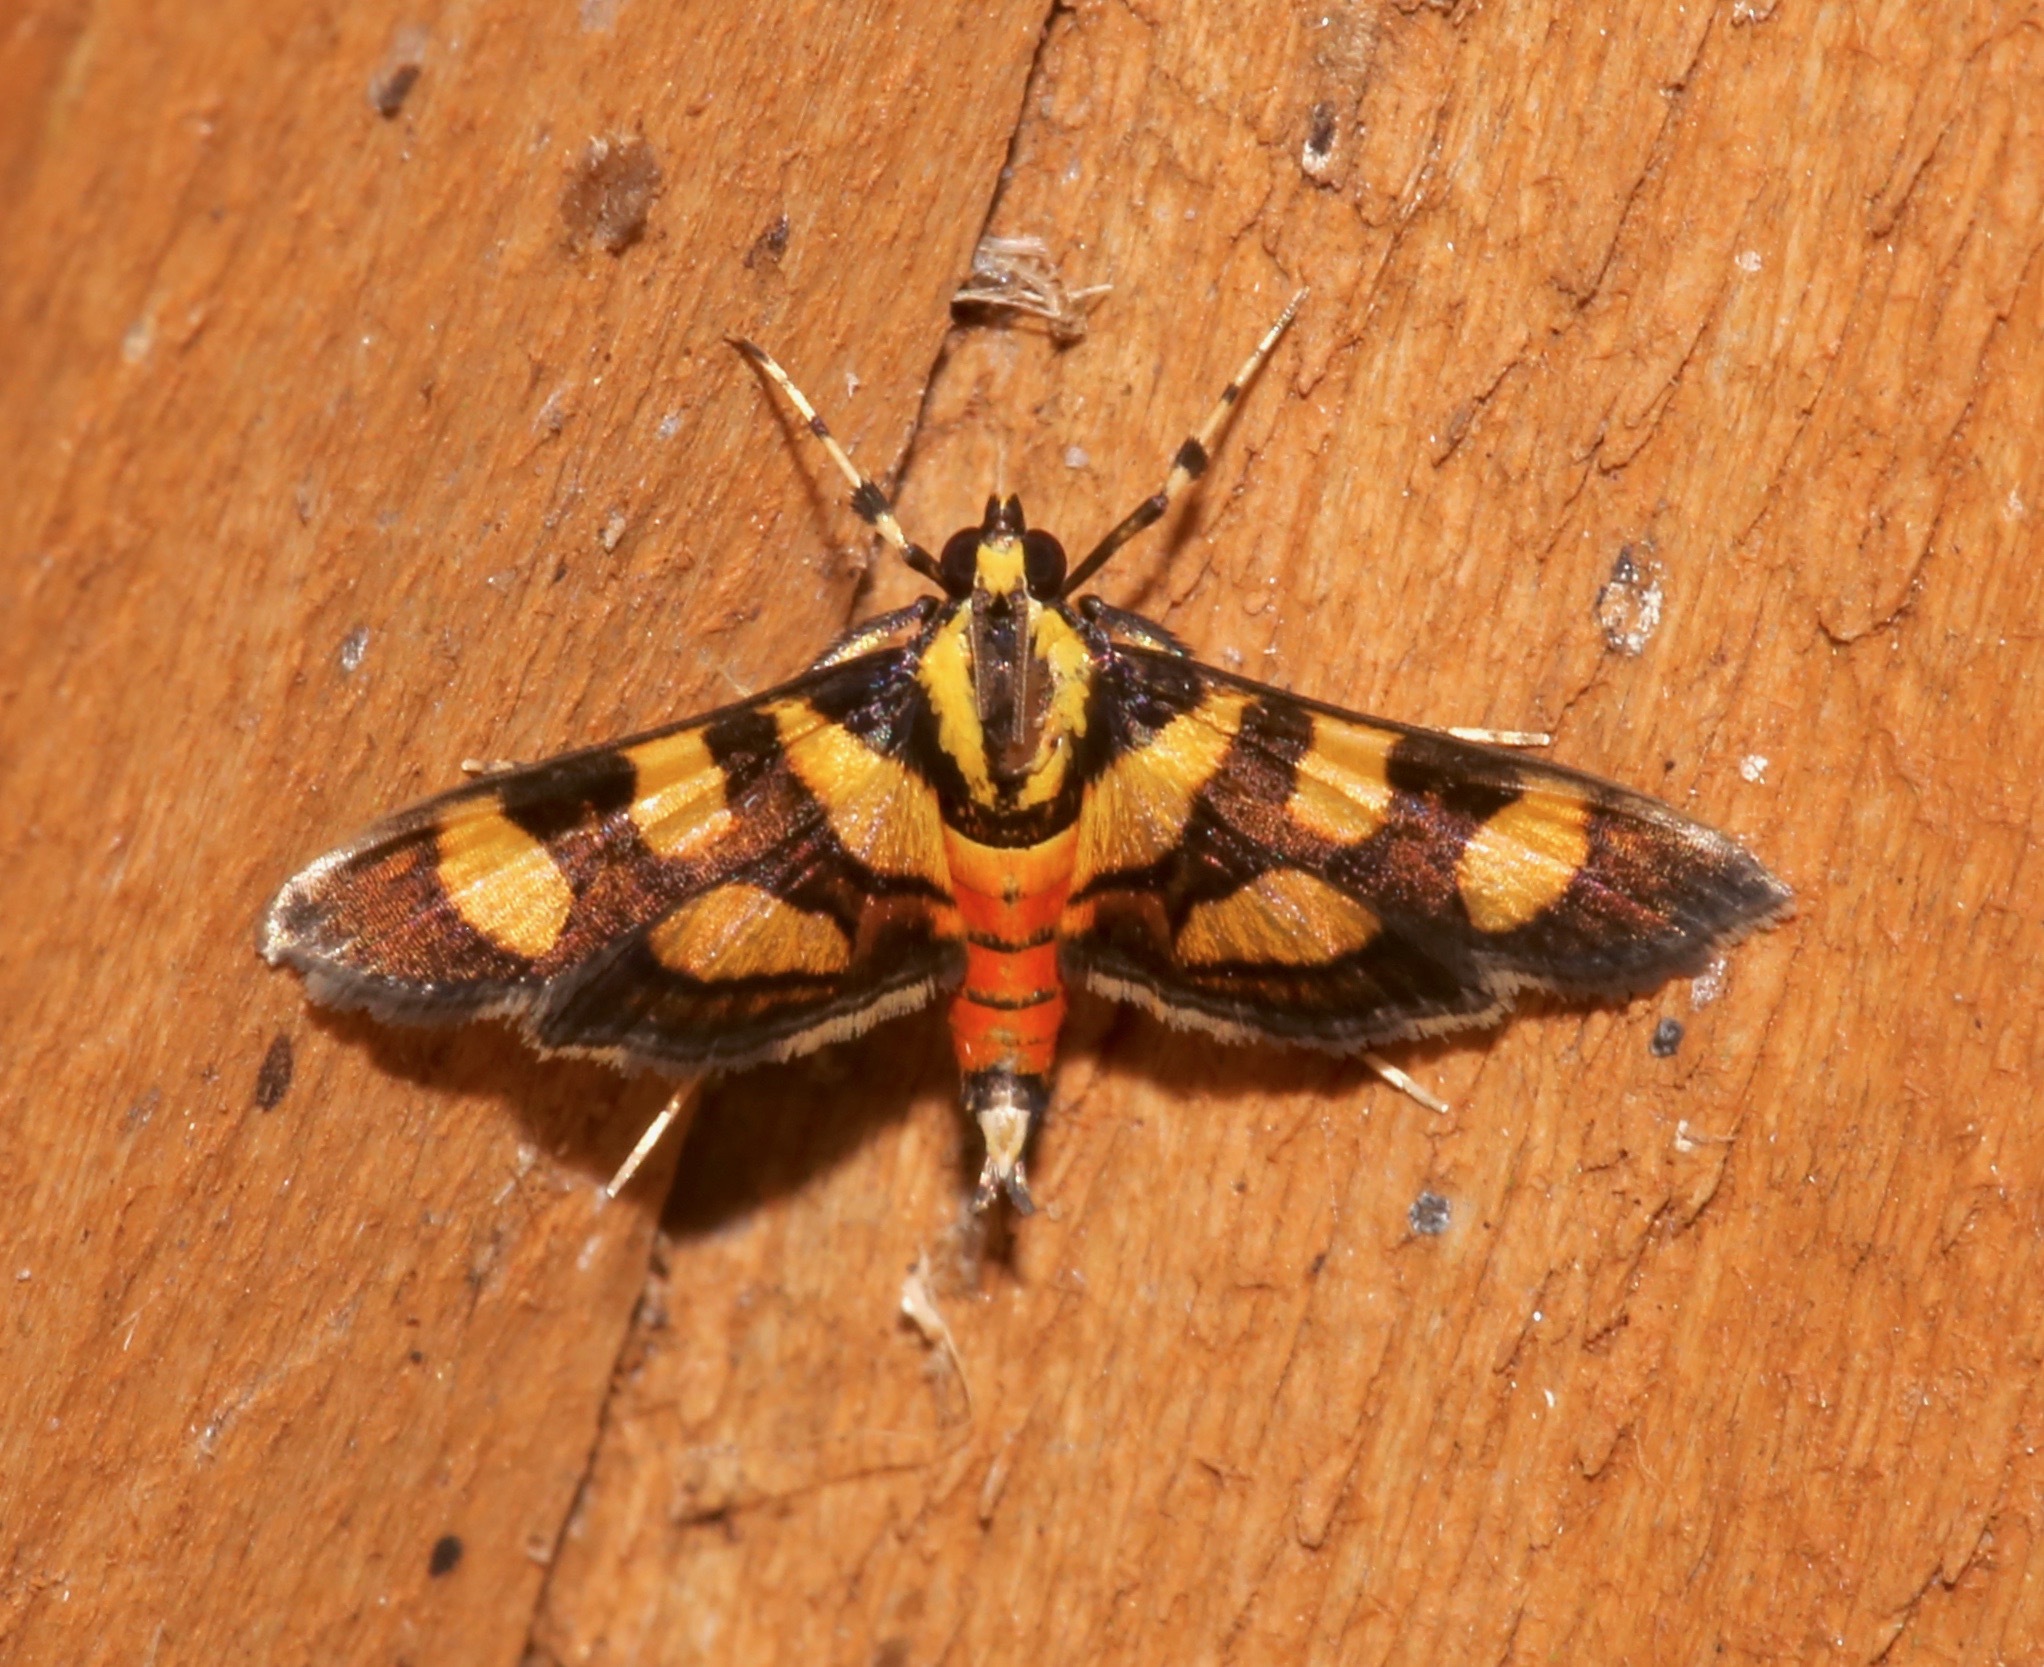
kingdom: Animalia
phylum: Arthropoda
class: Insecta
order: Lepidoptera
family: Crambidae
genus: Syngamia
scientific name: Syngamia florella
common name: Orange-spotted flower moth
